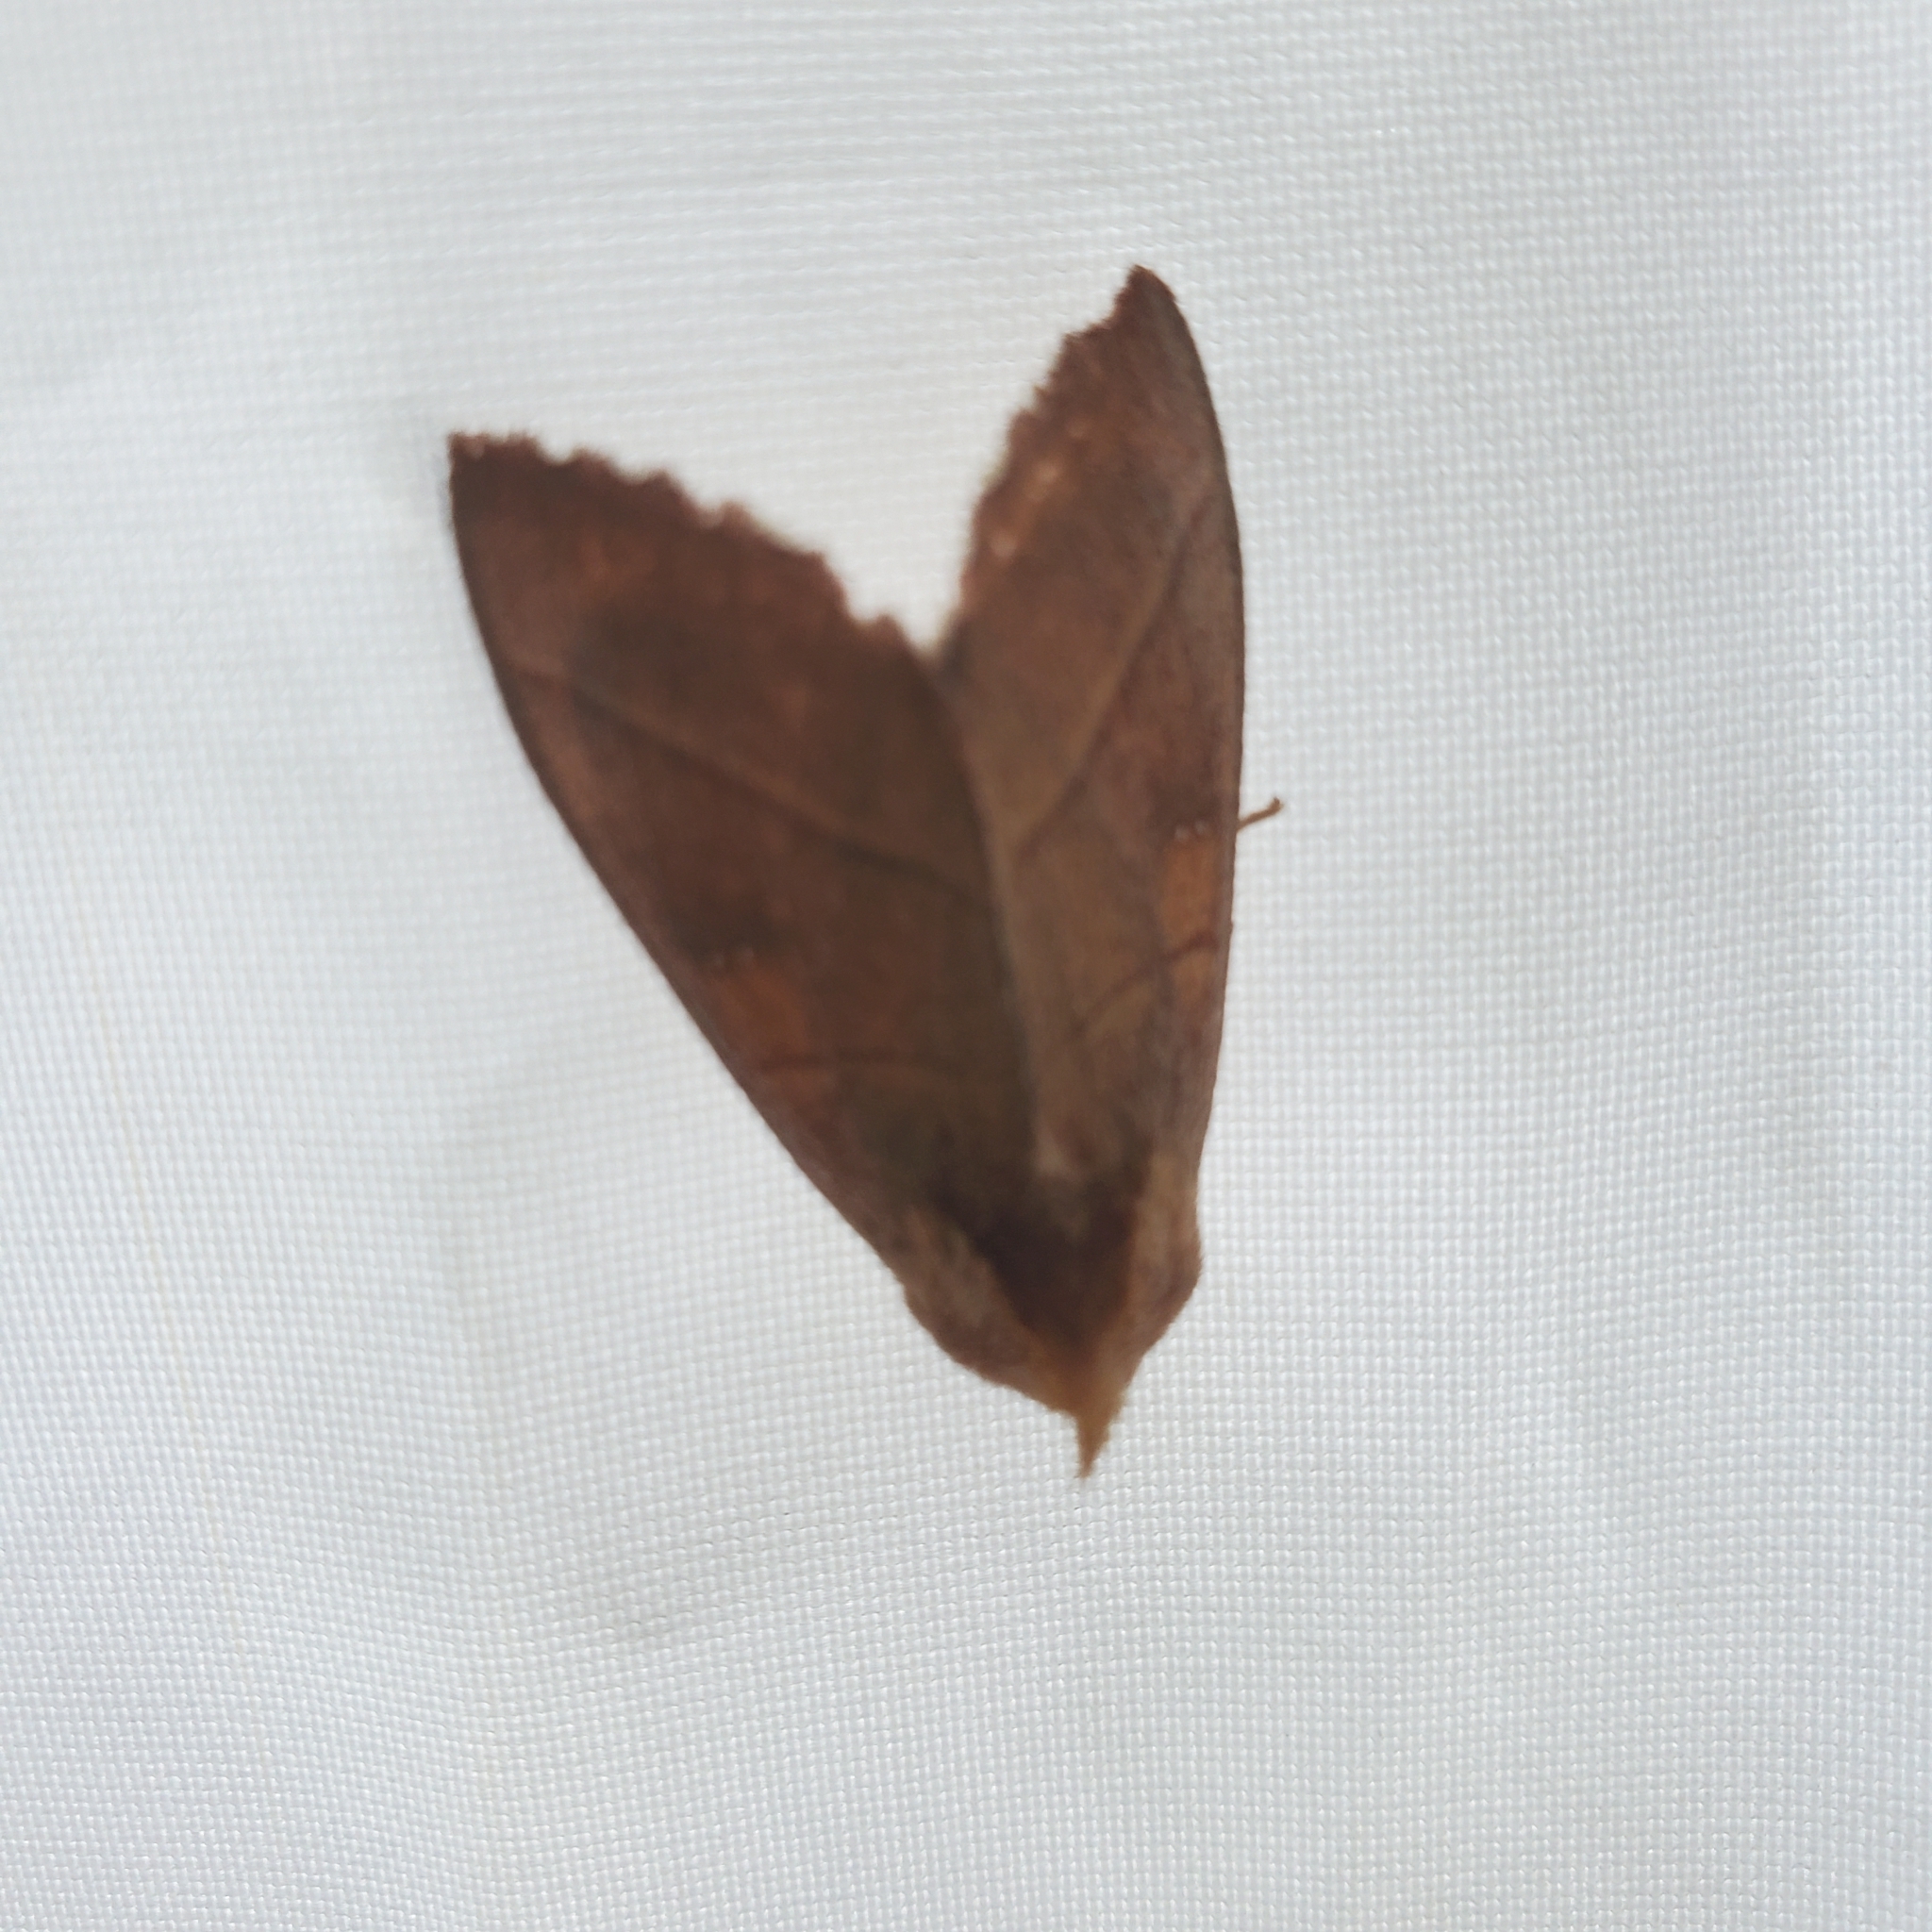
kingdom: Animalia
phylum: Arthropoda
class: Insecta
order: Lepidoptera
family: Notodontidae
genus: Nadata
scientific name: Nadata gibbosa
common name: White-dotted prominent
